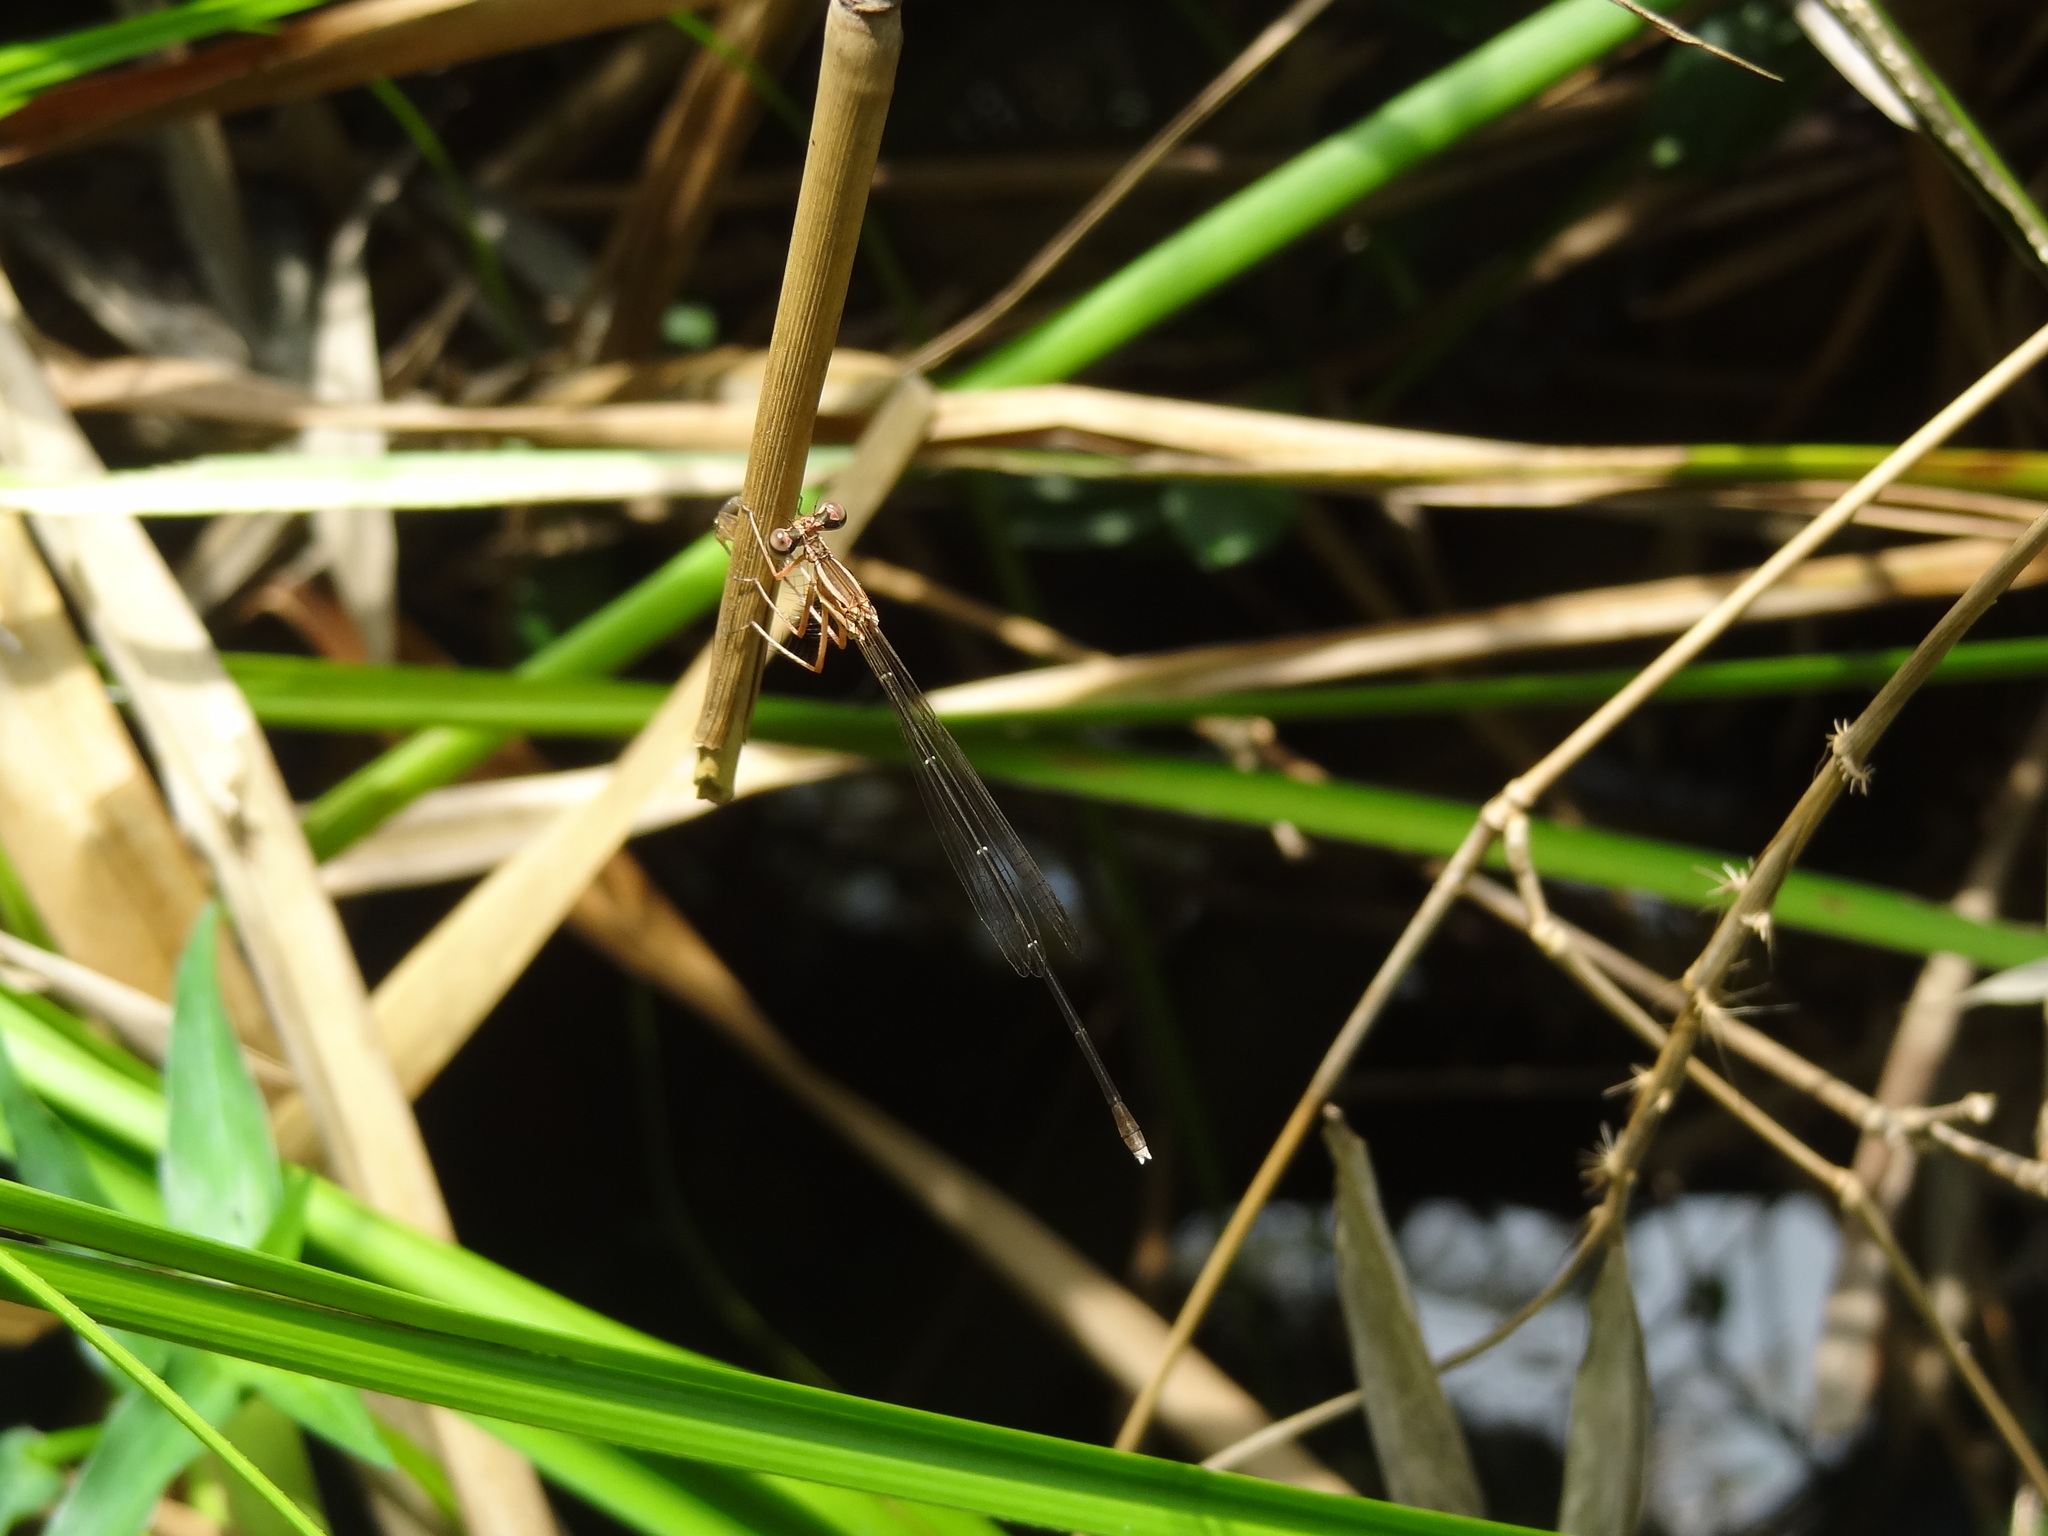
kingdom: Animalia
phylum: Arthropoda
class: Insecta
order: Odonata
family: Platycnemididae
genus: Pseudocopera
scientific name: Pseudocopera ciliata
